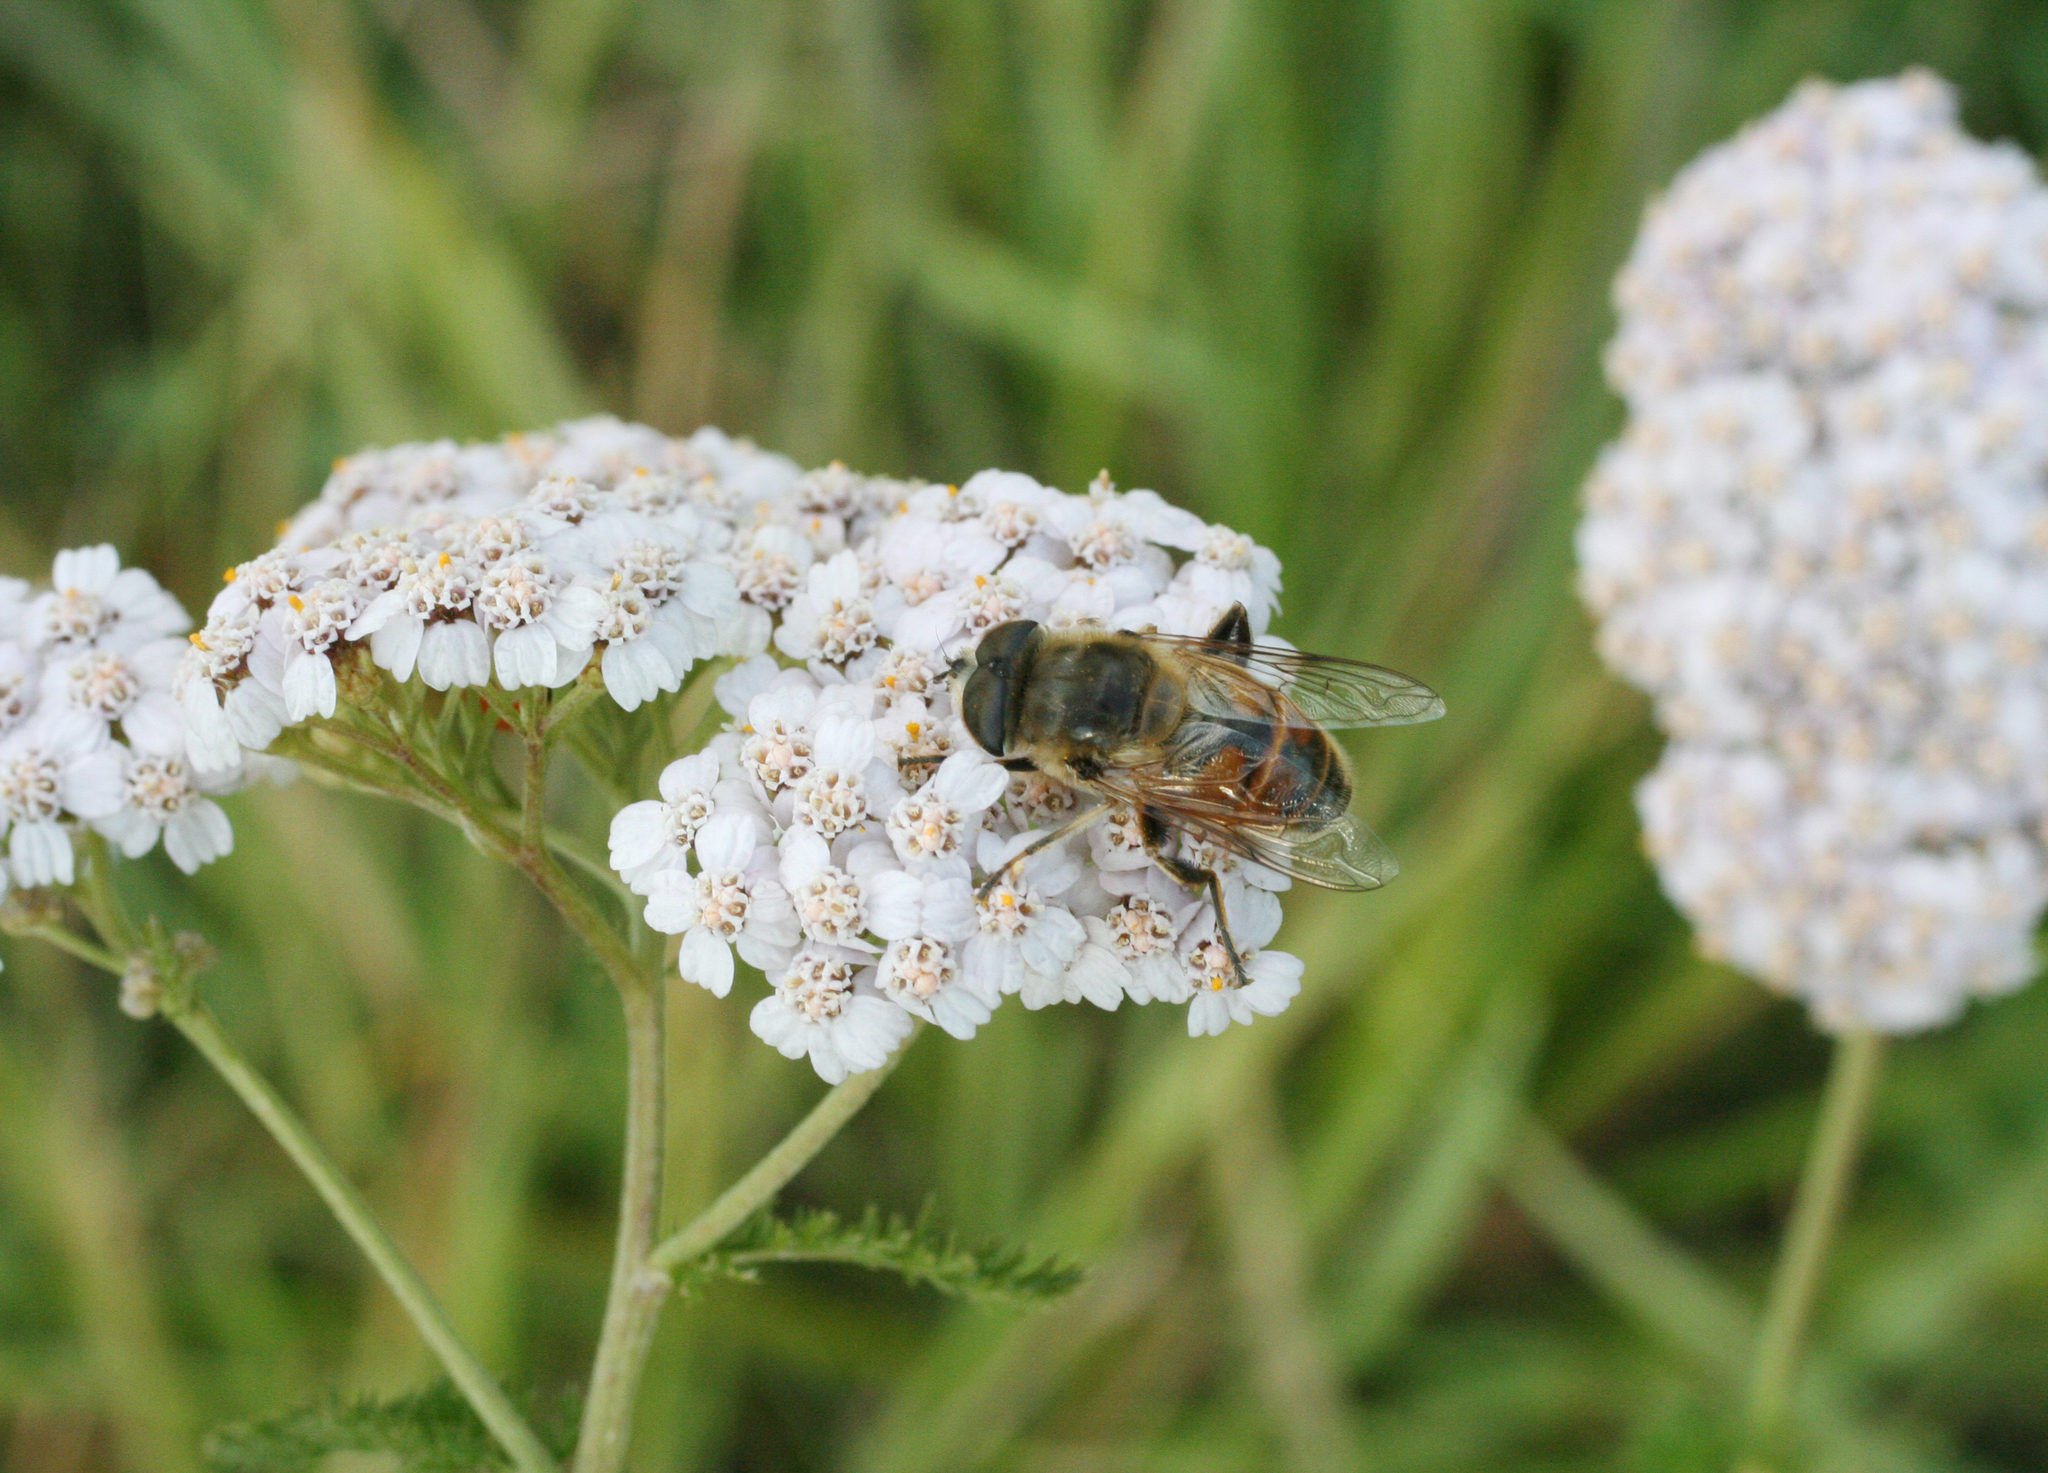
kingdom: Plantae
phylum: Tracheophyta
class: Magnoliopsida
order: Asterales
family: Asteraceae
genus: Achillea
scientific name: Achillea millefolium
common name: Yarrow
